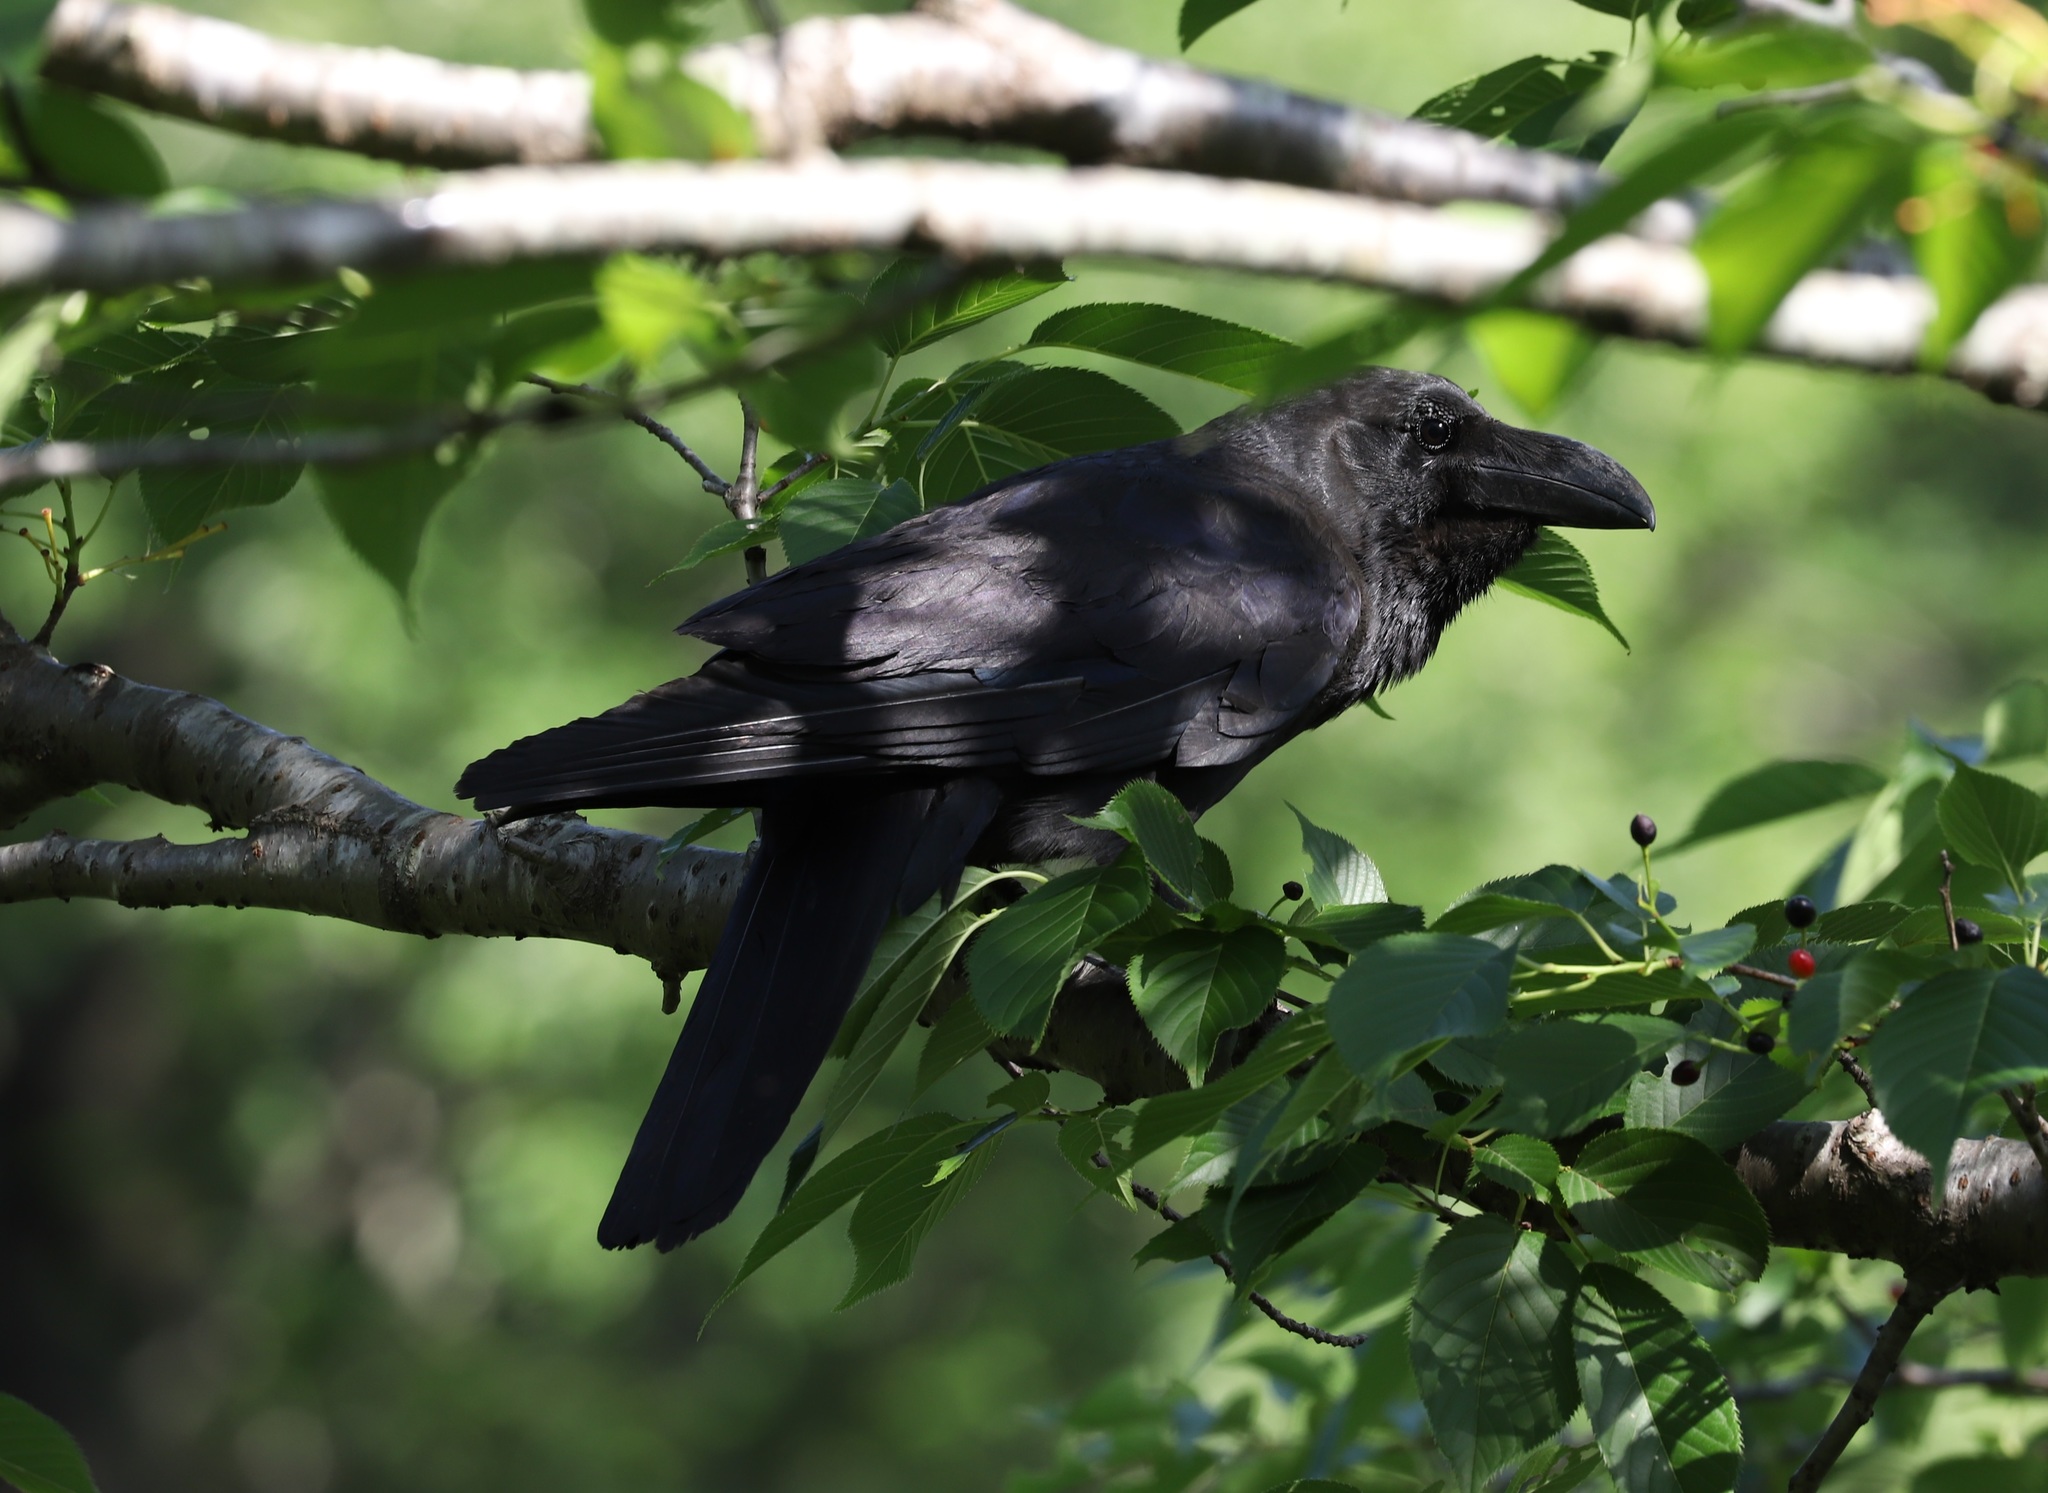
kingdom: Animalia
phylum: Chordata
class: Aves
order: Passeriformes
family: Corvidae
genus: Corvus
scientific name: Corvus macrorhynchos
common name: Large-billed crow
